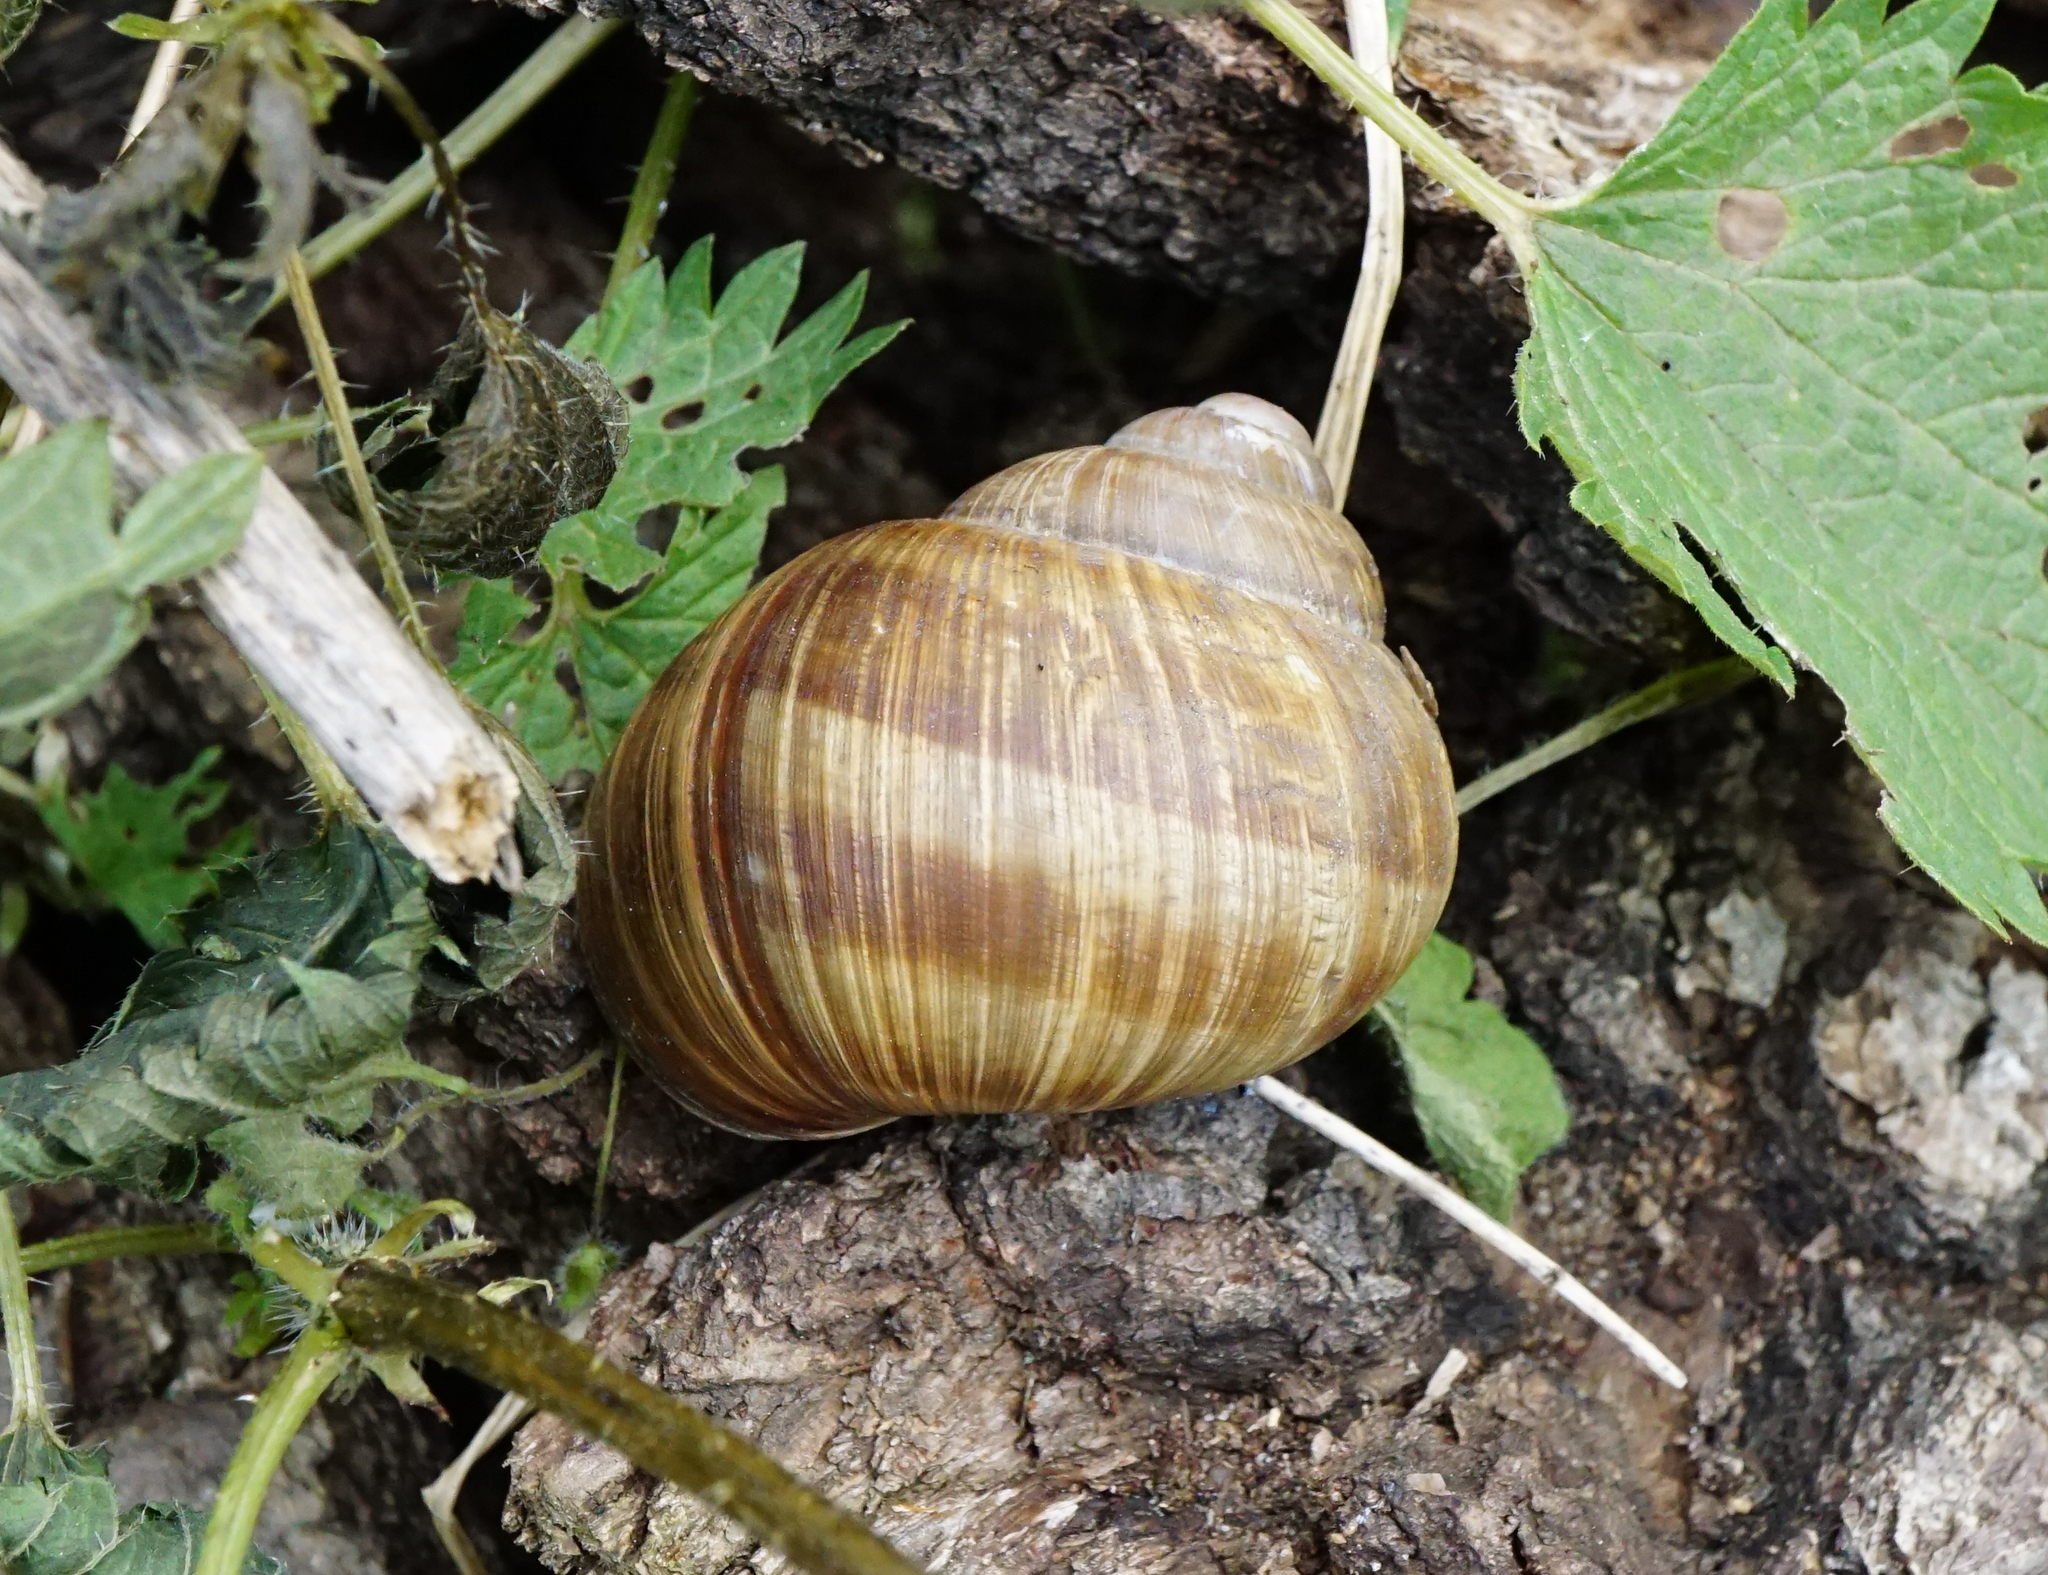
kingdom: Animalia
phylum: Mollusca
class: Gastropoda
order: Stylommatophora
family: Helicidae
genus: Helix
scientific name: Helix pomatia
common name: Roman snail
